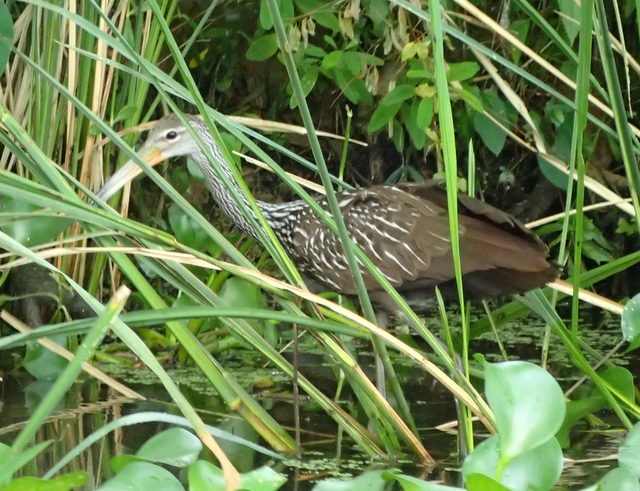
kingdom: Animalia
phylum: Chordata
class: Aves
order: Gruiformes
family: Aramidae
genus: Aramus
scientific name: Aramus guarauna
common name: Limpkin
